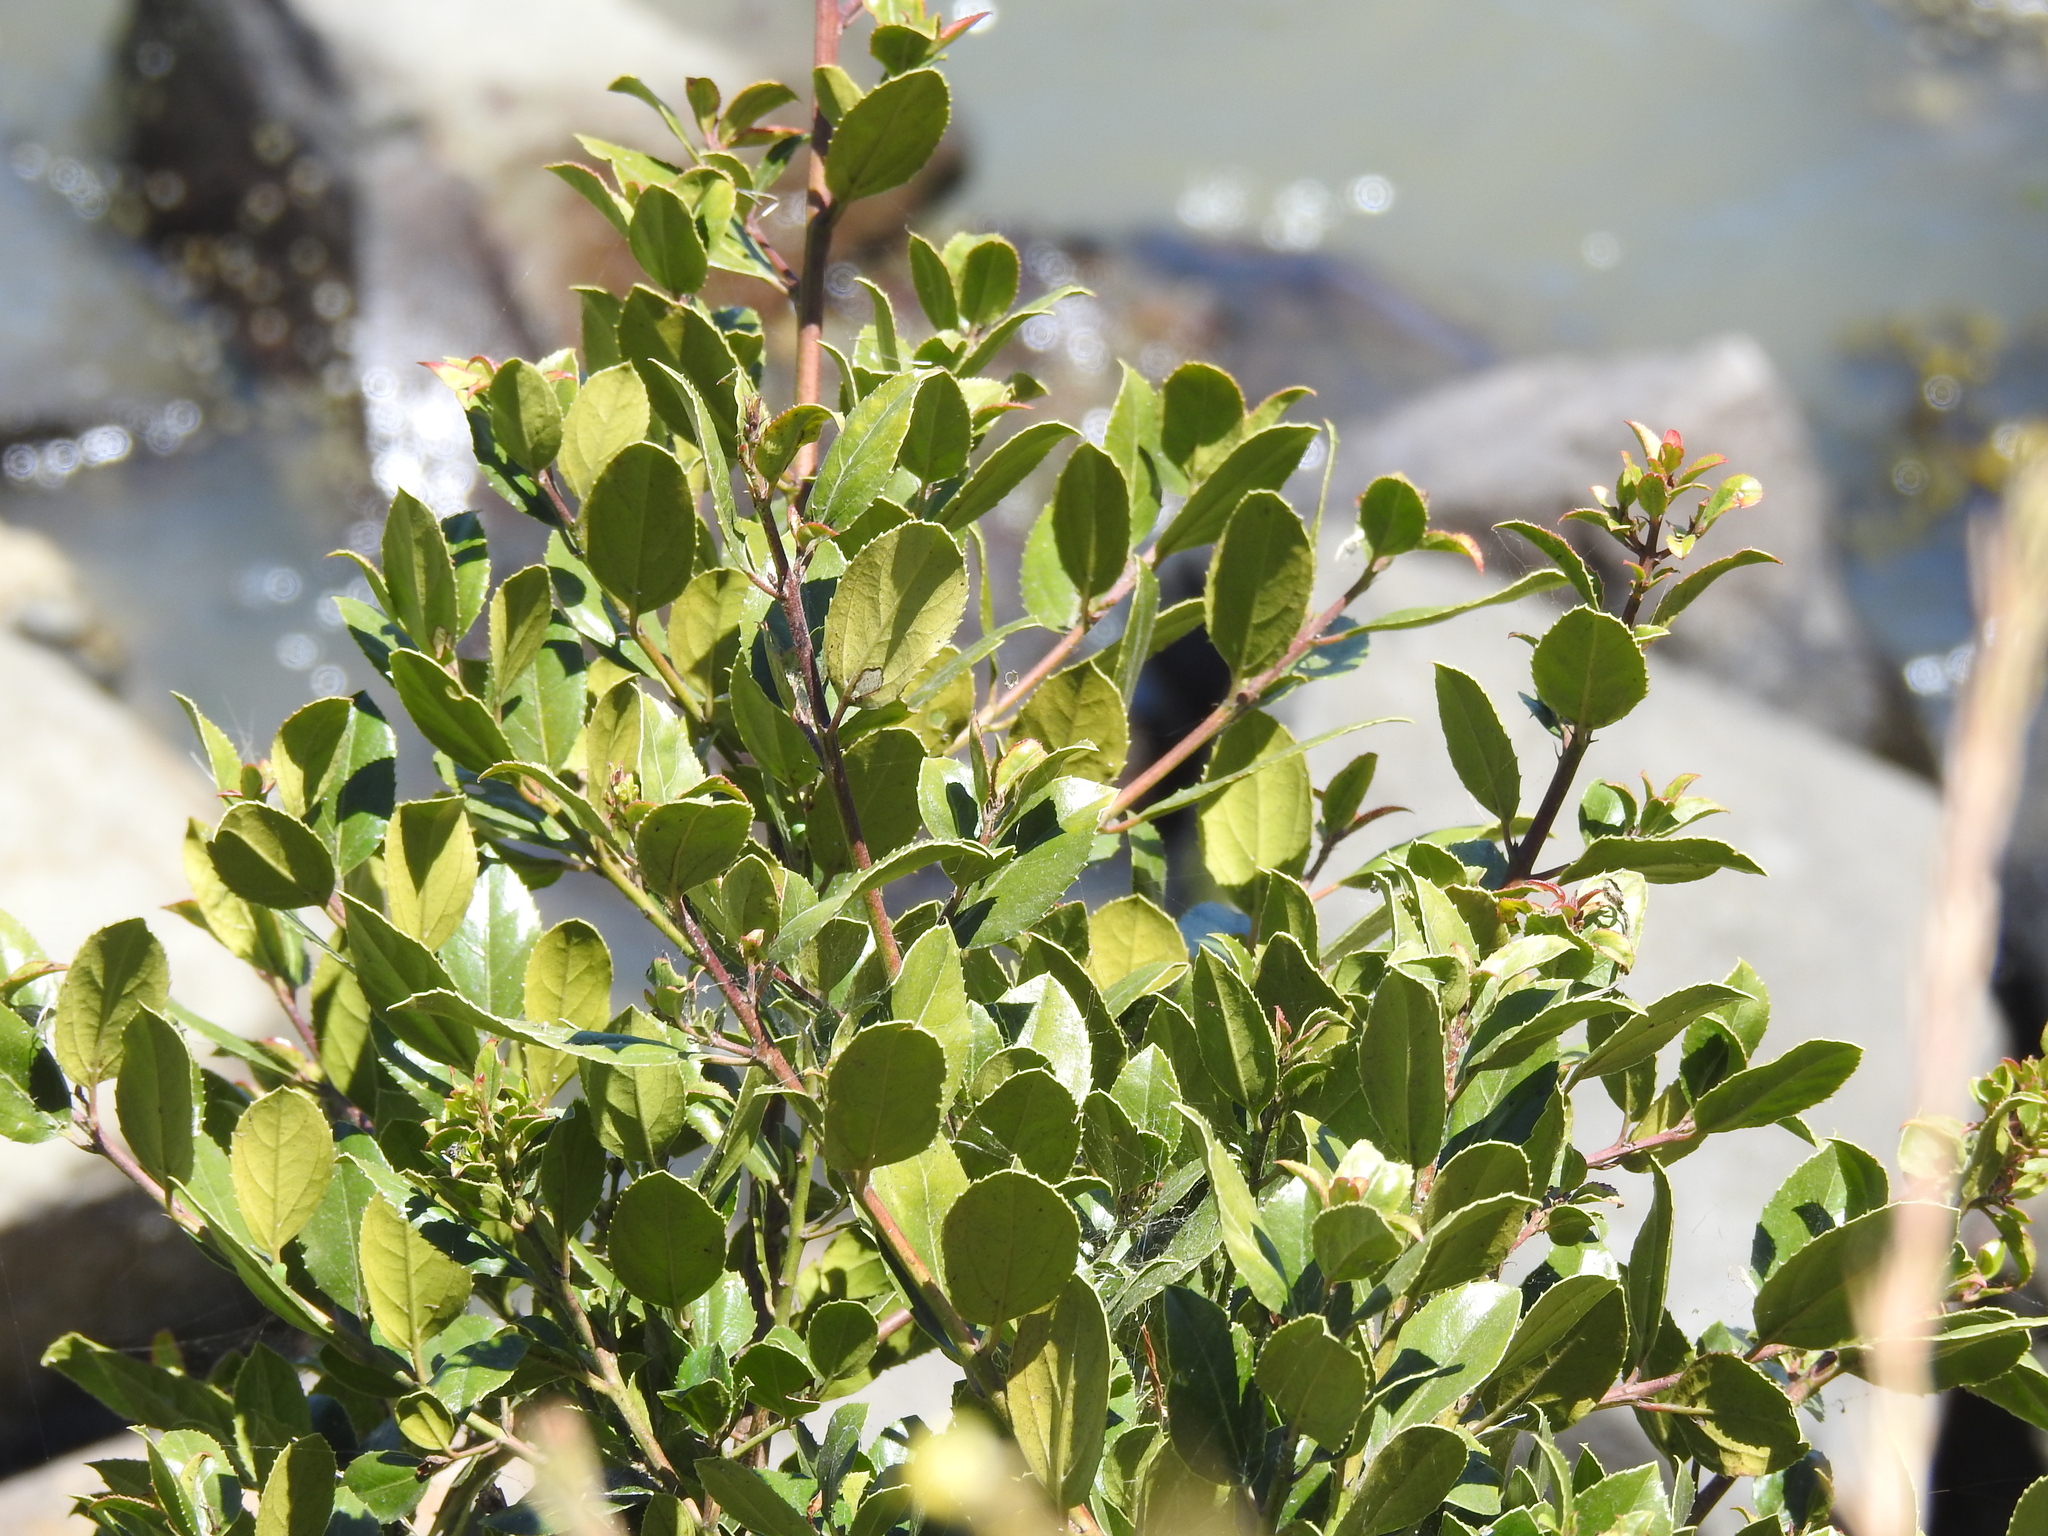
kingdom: Plantae
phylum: Tracheophyta
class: Magnoliopsida
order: Ericales
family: Ericaceae
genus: Vaccinium
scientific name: Vaccinium ovatum
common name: California-huckleberry
